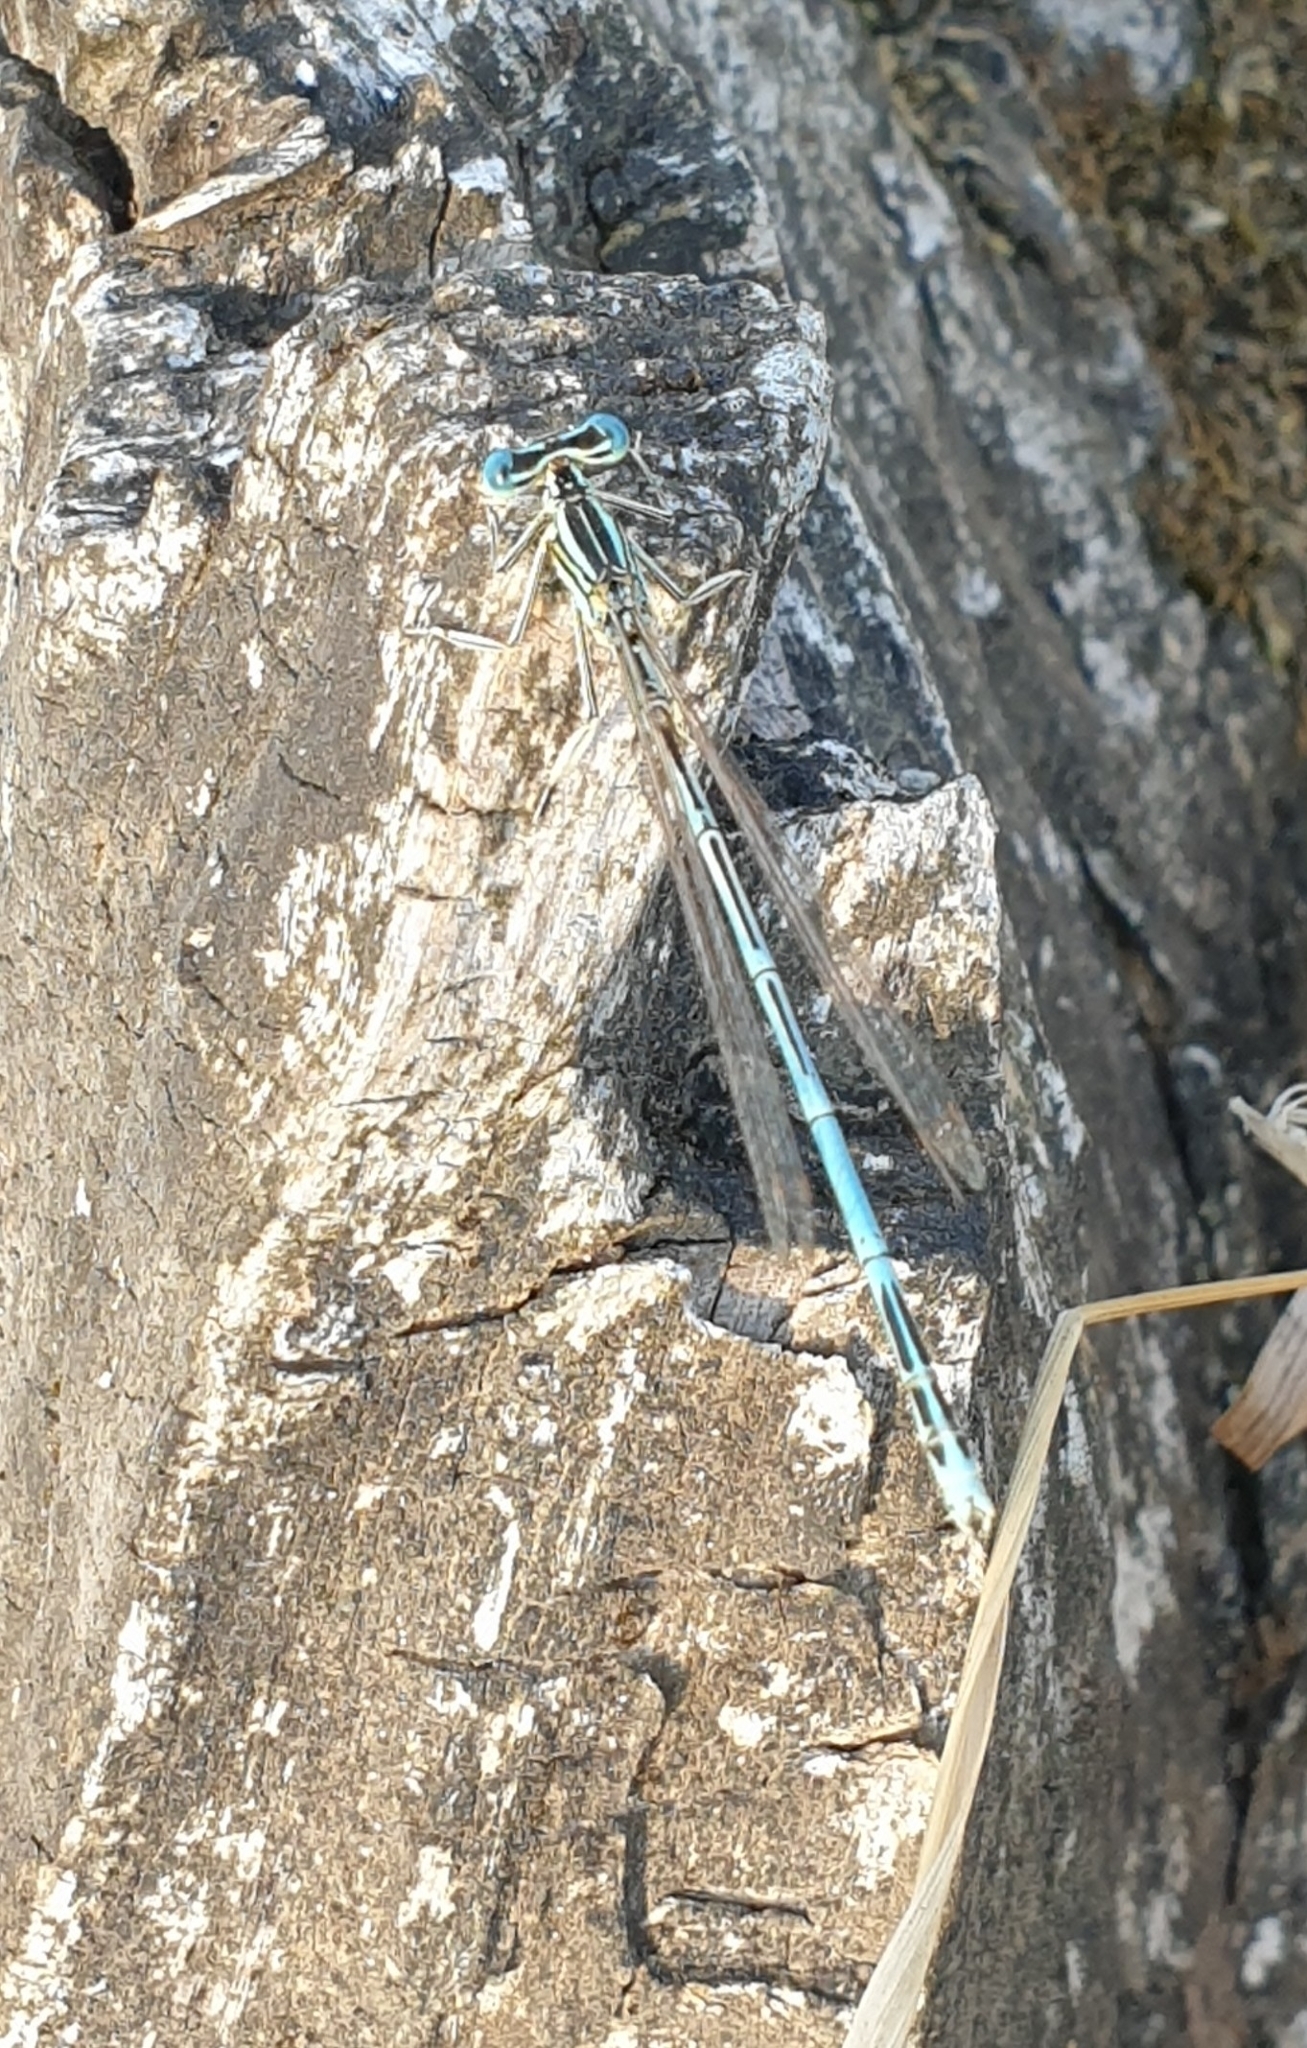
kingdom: Animalia
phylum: Arthropoda
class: Insecta
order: Odonata
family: Platycnemididae
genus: Platycnemis
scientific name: Platycnemis pennipes
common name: White-legged damselfly
